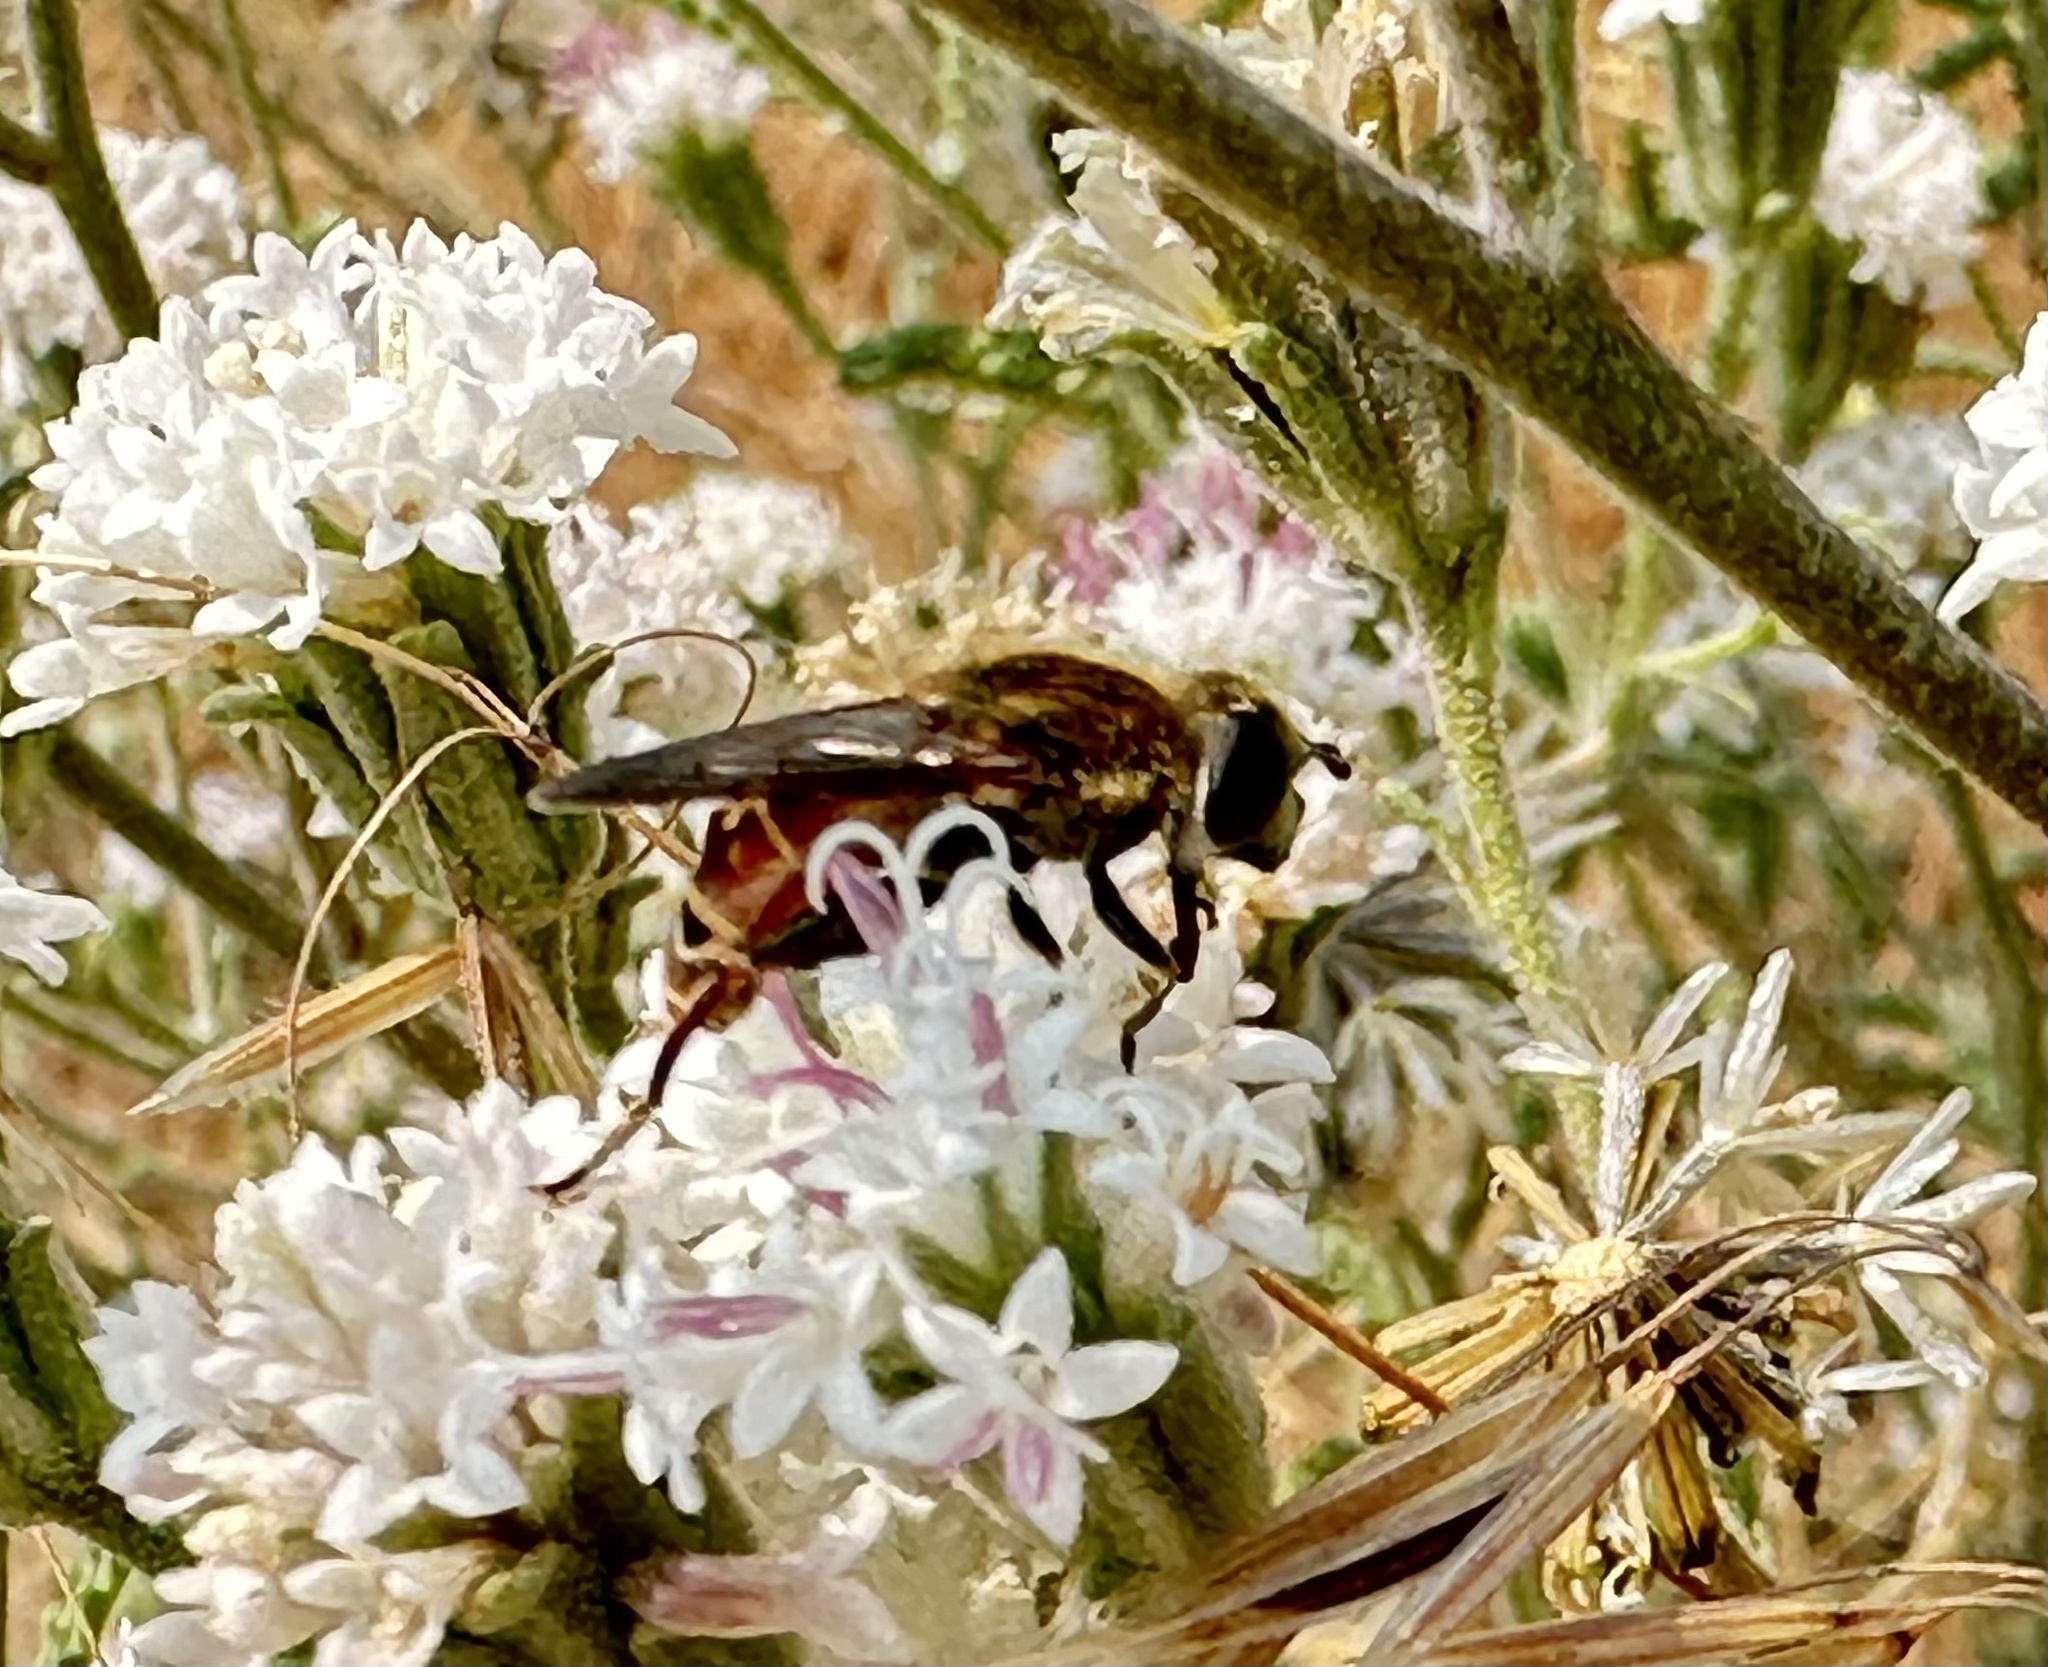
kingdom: Animalia
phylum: Arthropoda
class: Insecta
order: Diptera
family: Syrphidae
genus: Asemosyrphus
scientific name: Asemosyrphus polygrammus
